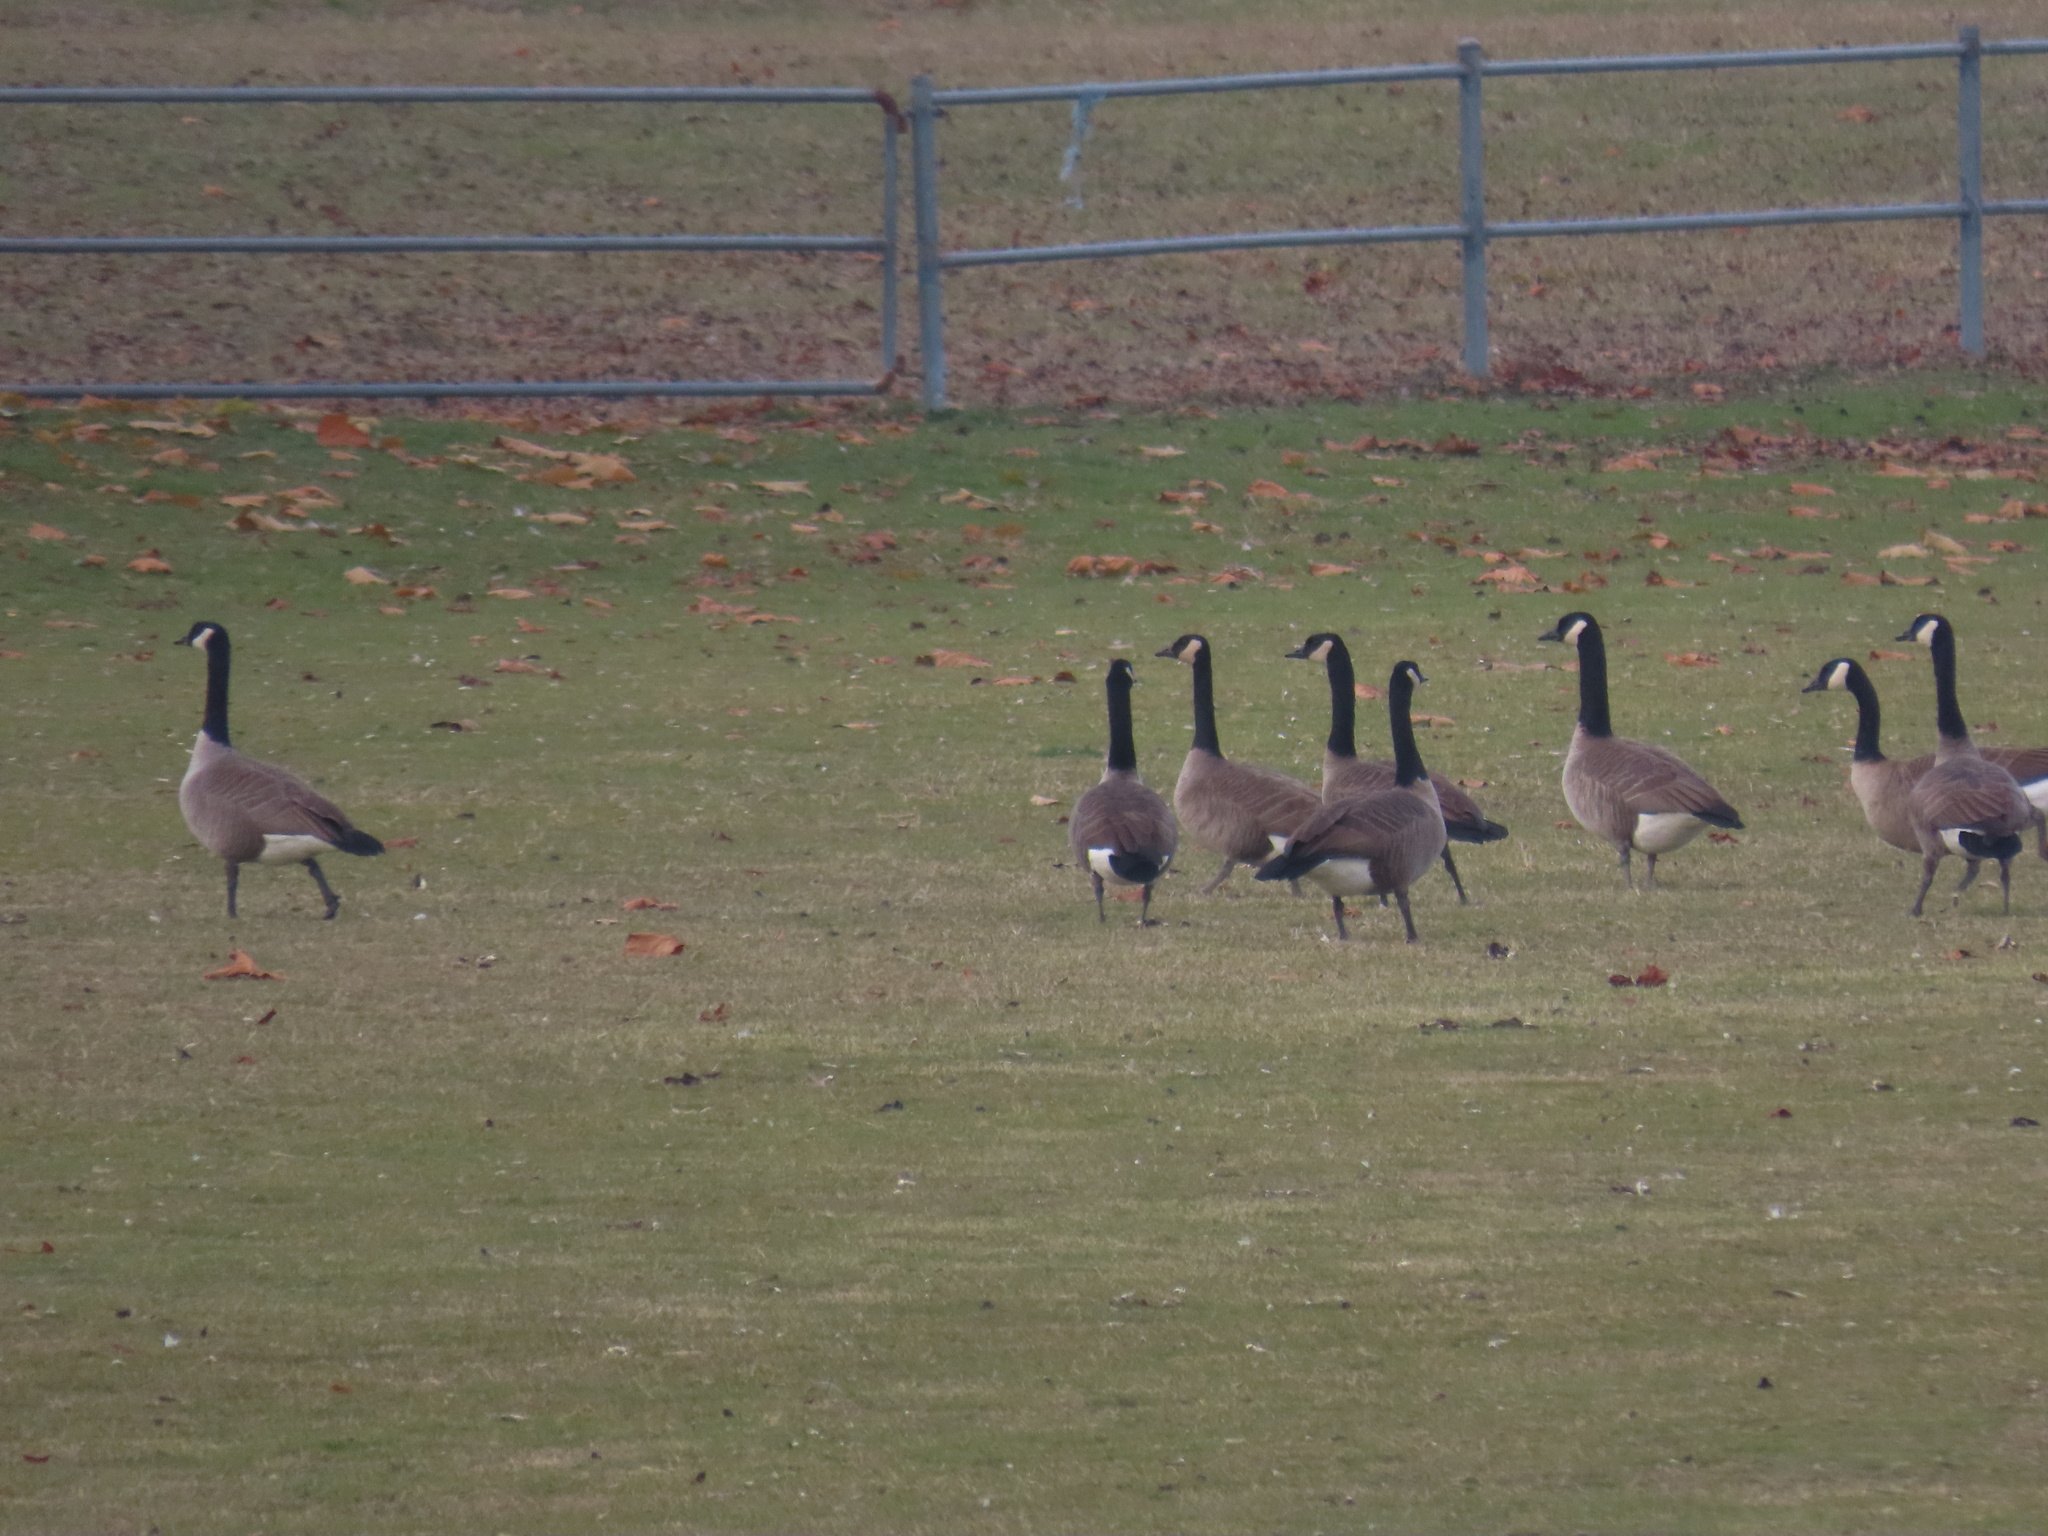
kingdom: Animalia
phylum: Chordata
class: Aves
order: Anseriformes
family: Anatidae
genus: Branta
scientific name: Branta canadensis
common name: Canada goose
